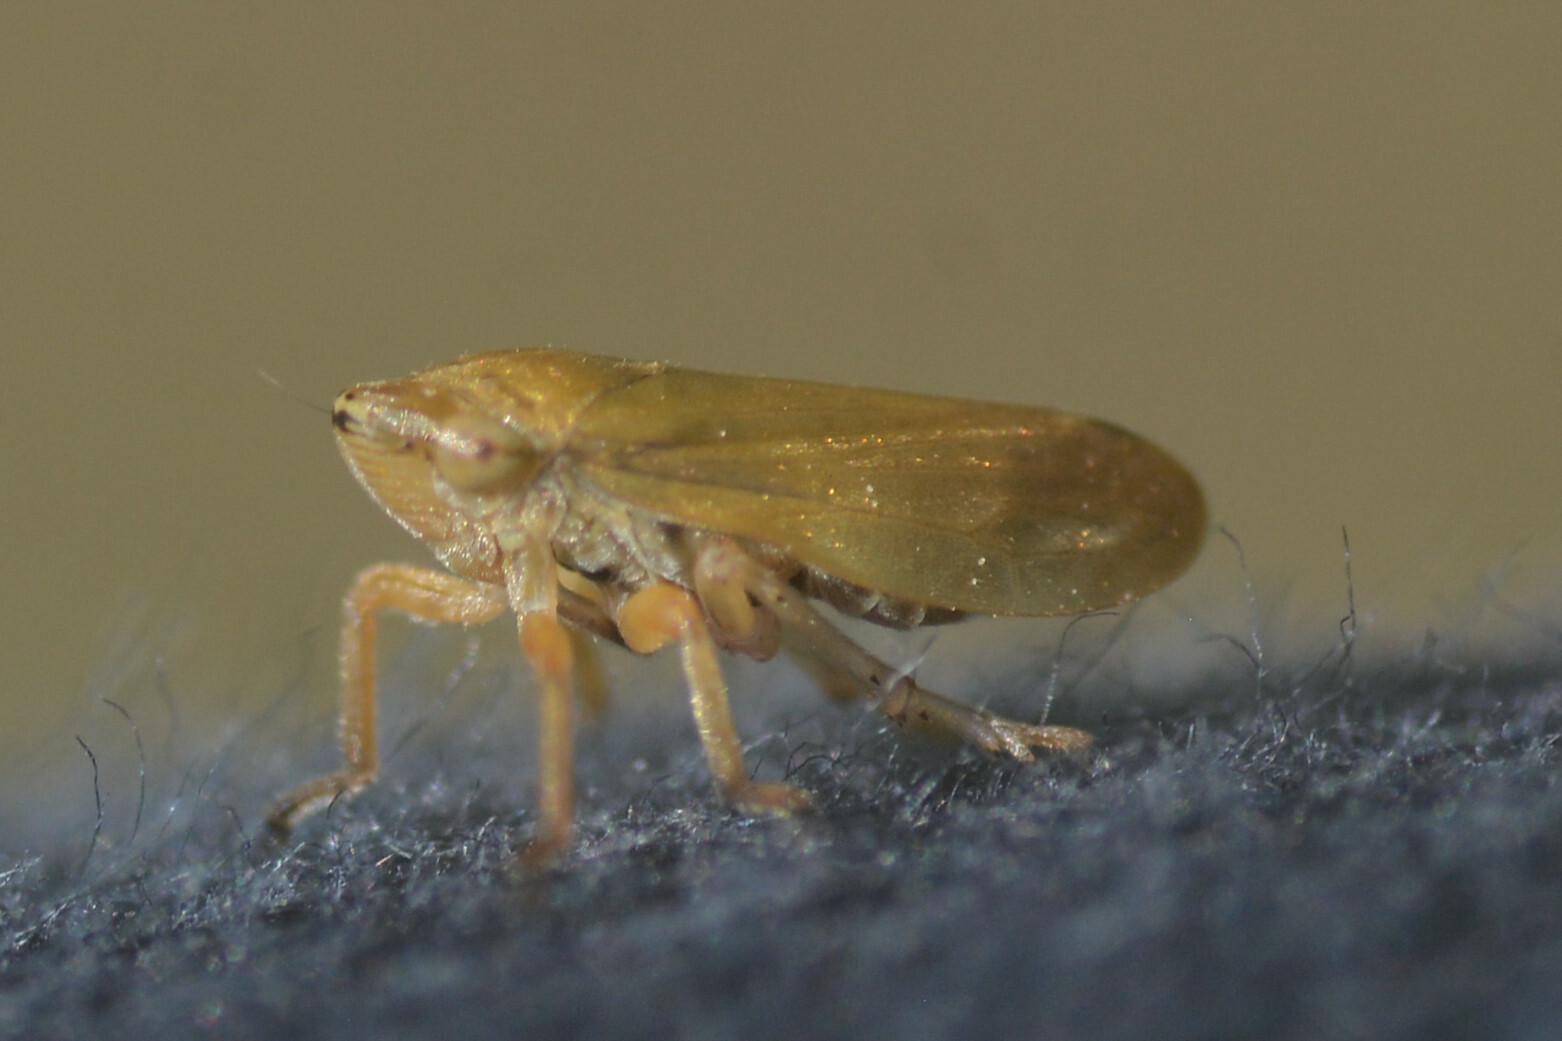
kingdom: Animalia
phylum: Arthropoda
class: Insecta
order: Hemiptera
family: Aphrophoridae
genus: Philaenus
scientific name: Philaenus spumarius
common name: Meadow spittlebug
